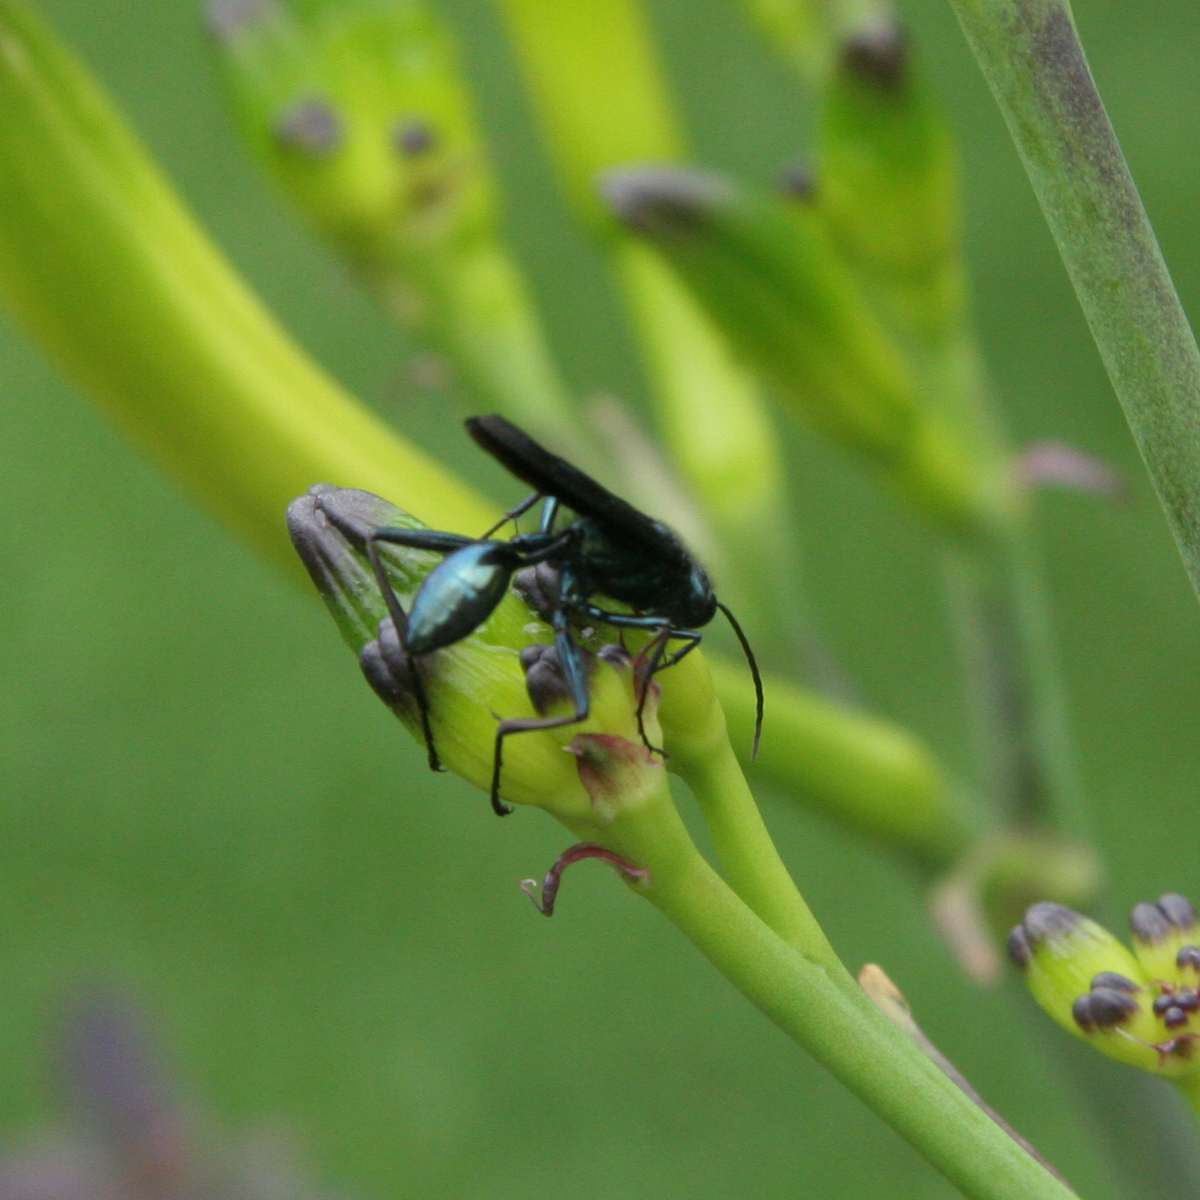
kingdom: Animalia
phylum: Arthropoda
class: Insecta
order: Hymenoptera
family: Sphecidae
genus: Chalybion
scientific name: Chalybion californicum
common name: Mud dauber
